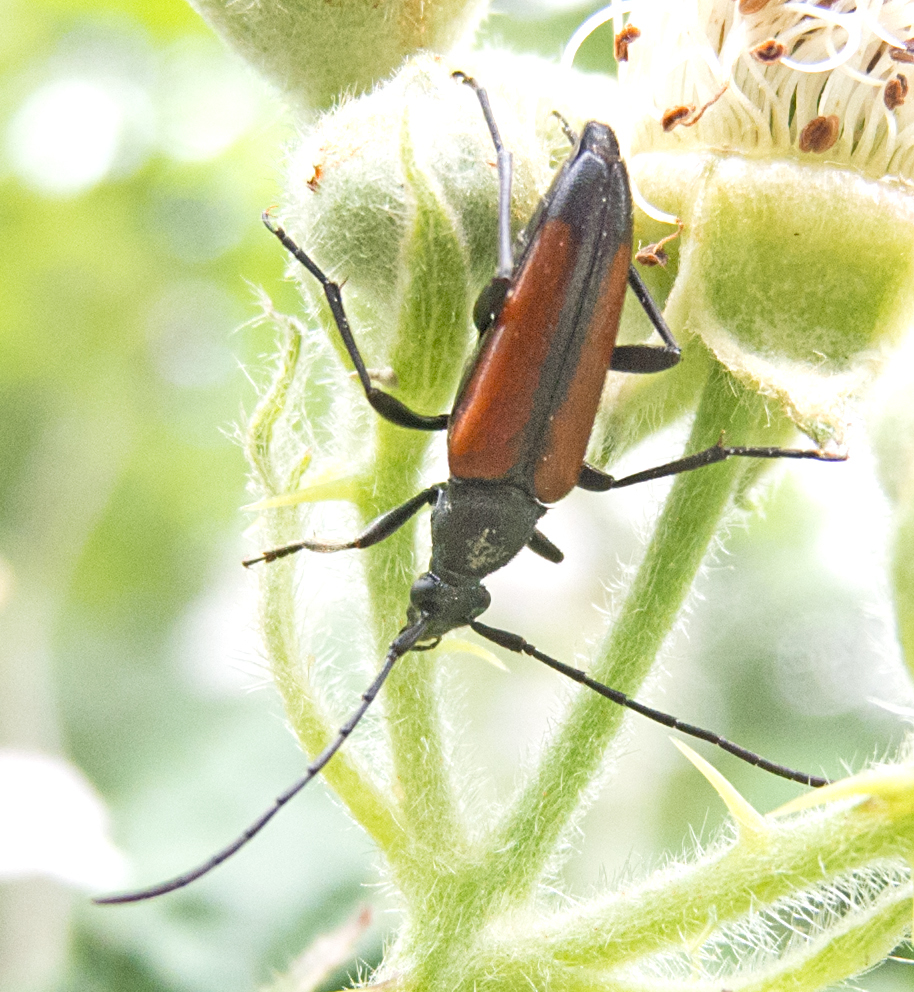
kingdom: Animalia
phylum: Arthropoda
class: Insecta
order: Coleoptera
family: Cerambycidae
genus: Stenurella
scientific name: Stenurella melanura
